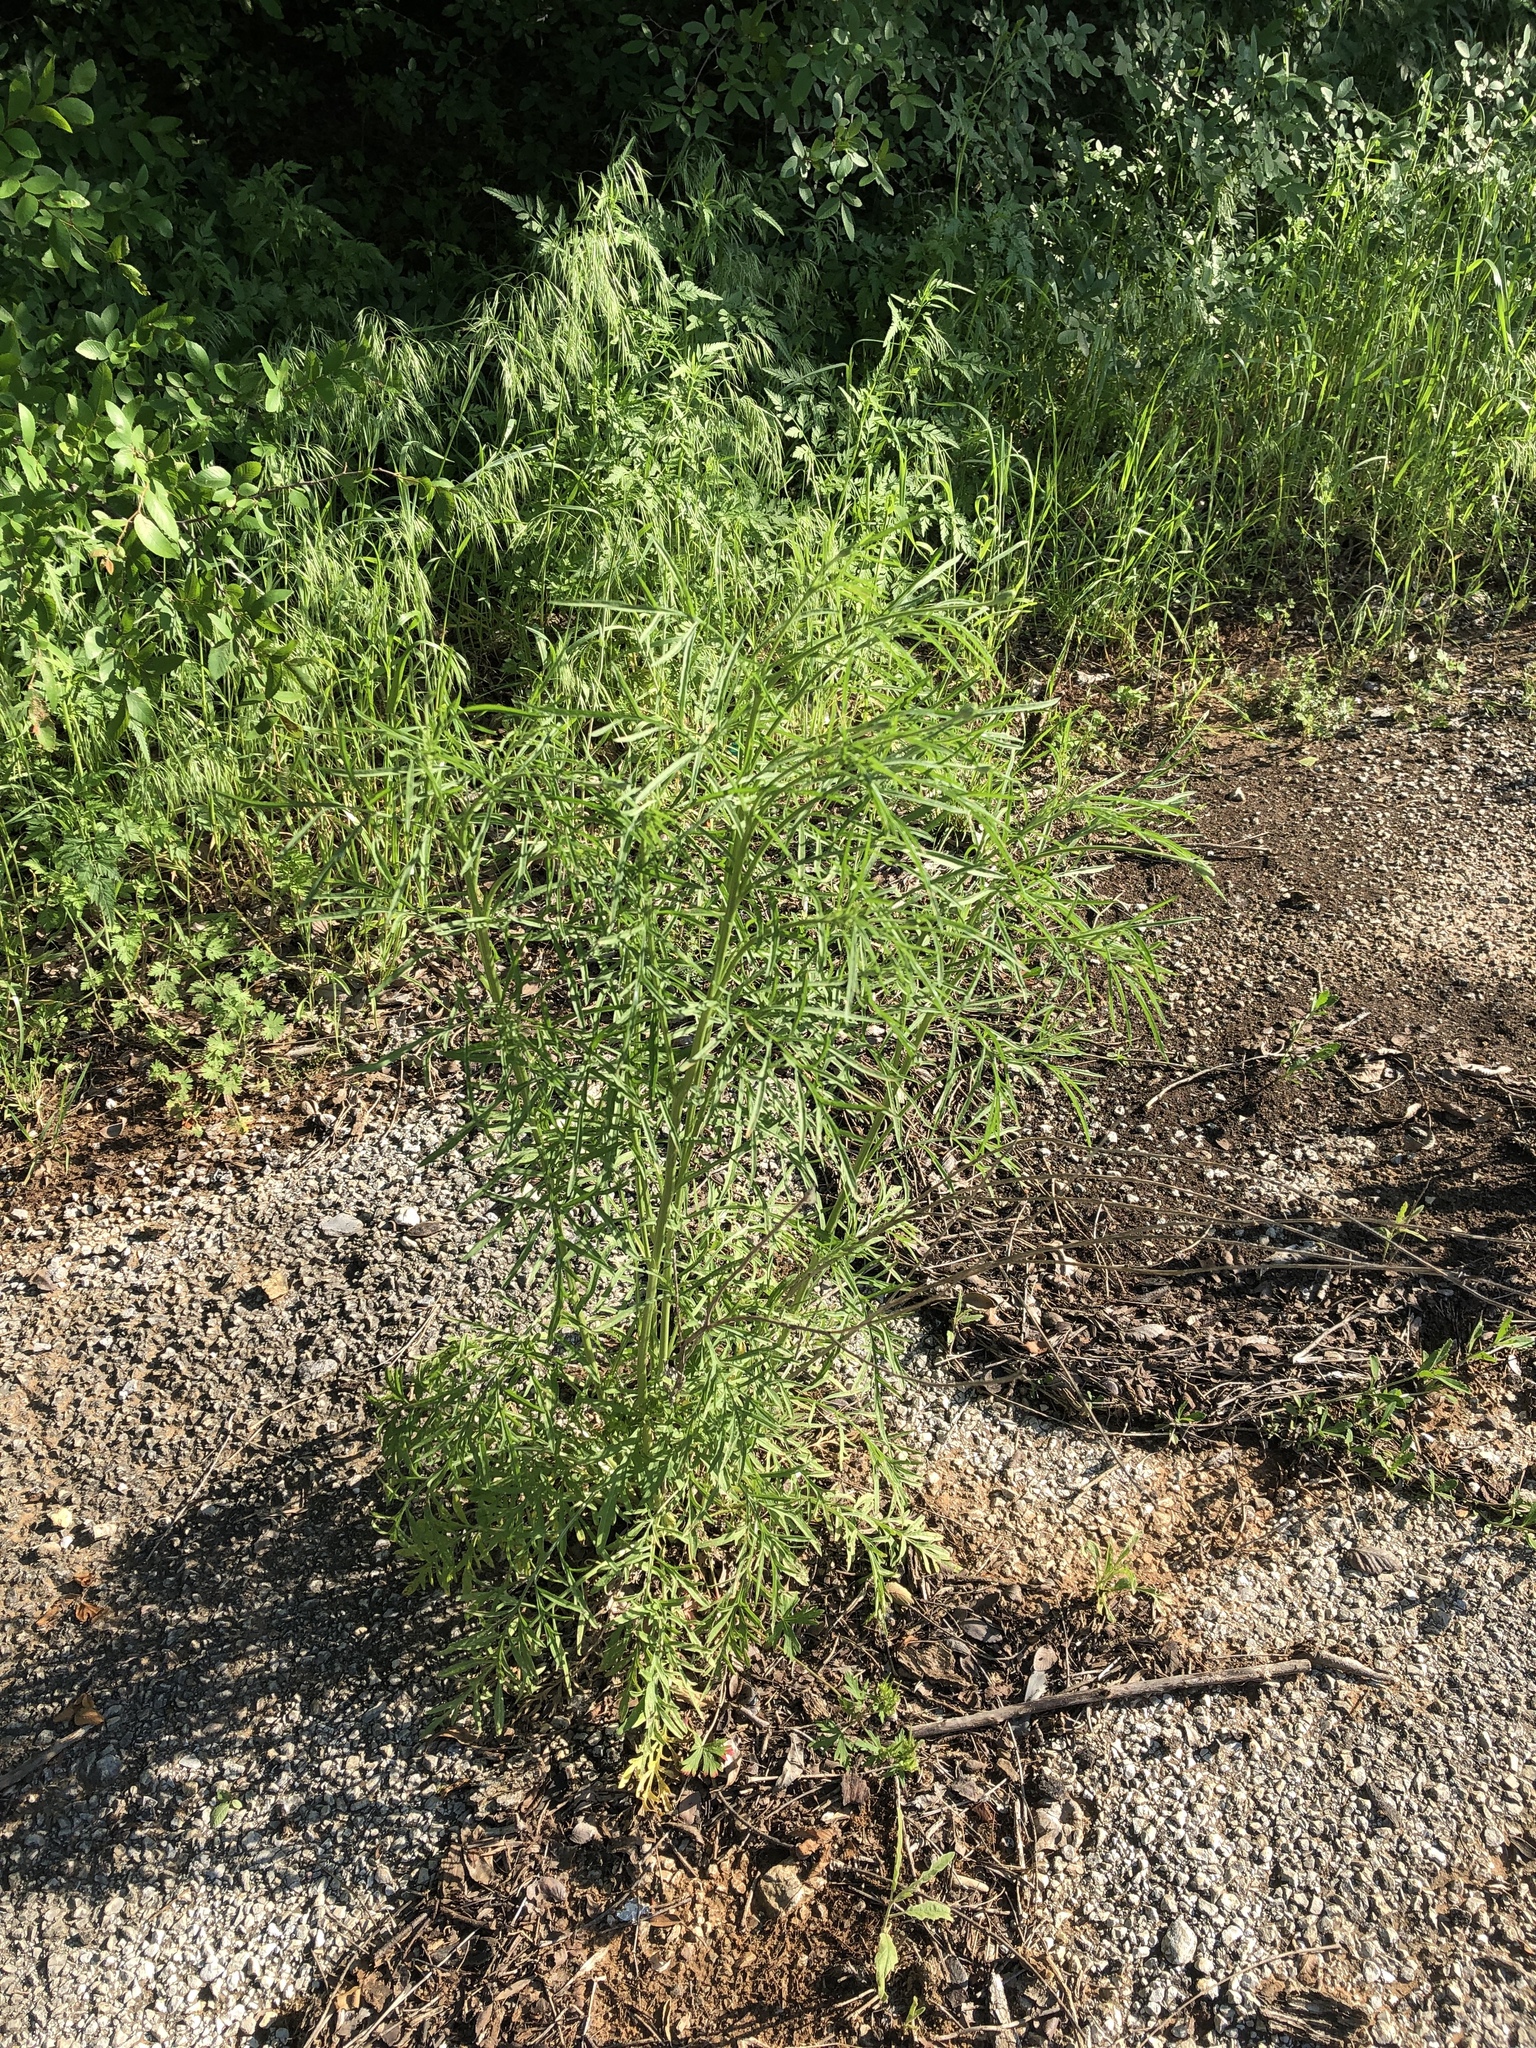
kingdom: Plantae
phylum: Tracheophyta
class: Magnoliopsida
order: Asterales
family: Asteraceae
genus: Ratibida
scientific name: Ratibida columnifera
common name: Prairie coneflower
